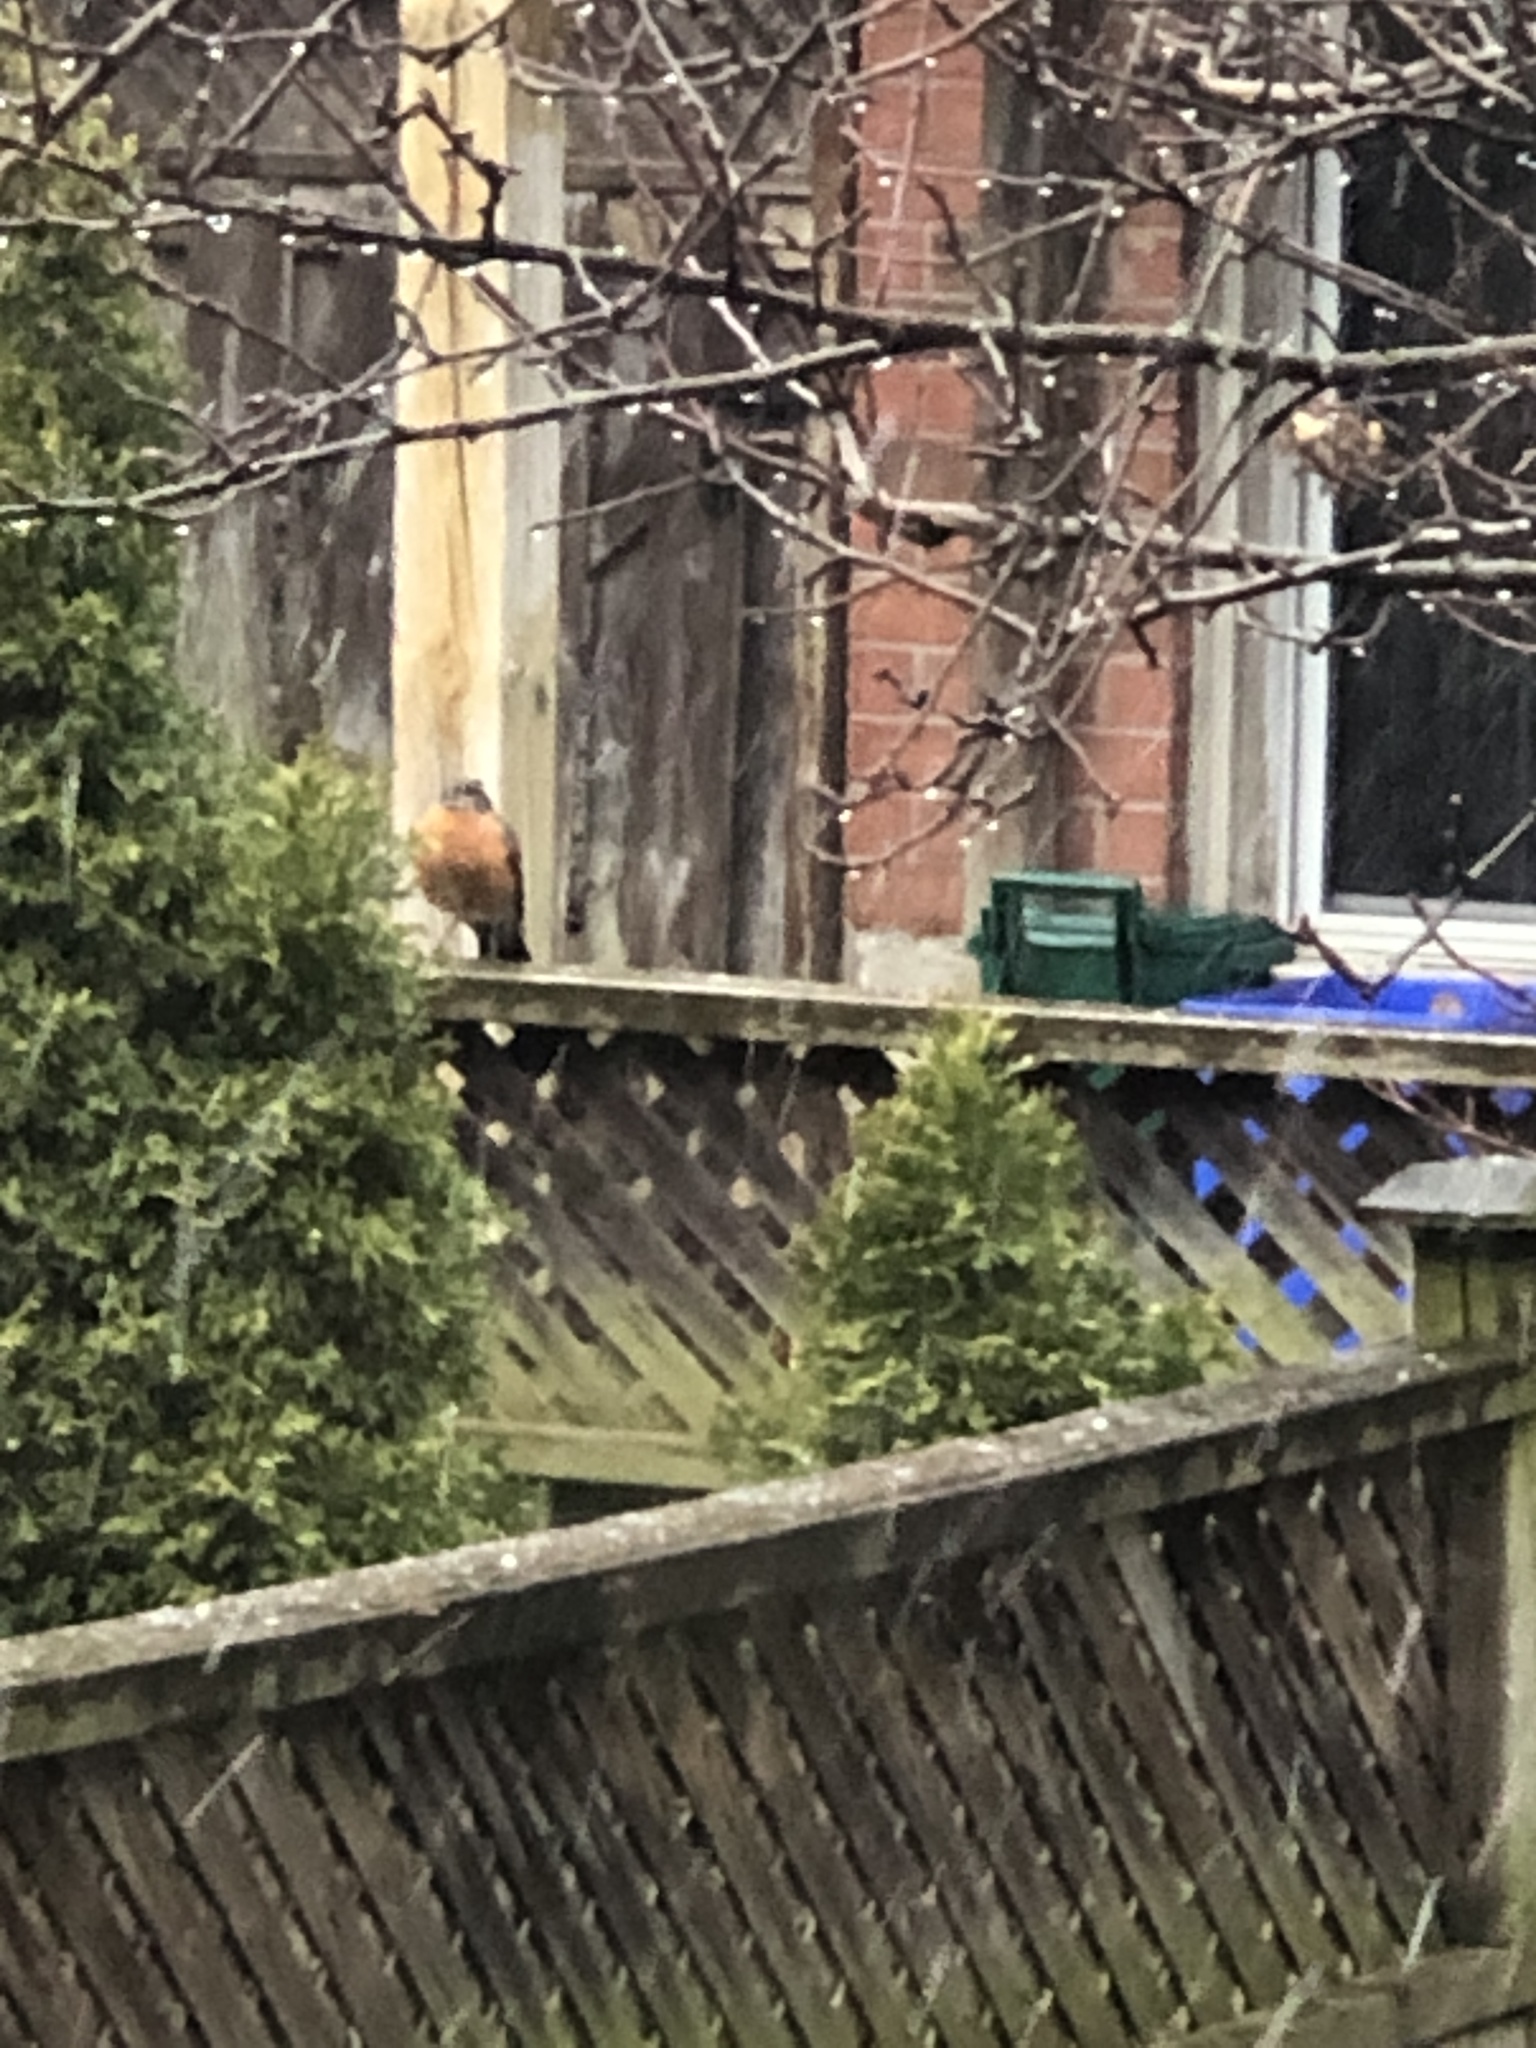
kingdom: Animalia
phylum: Chordata
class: Aves
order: Passeriformes
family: Turdidae
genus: Turdus
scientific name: Turdus migratorius
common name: American robin
